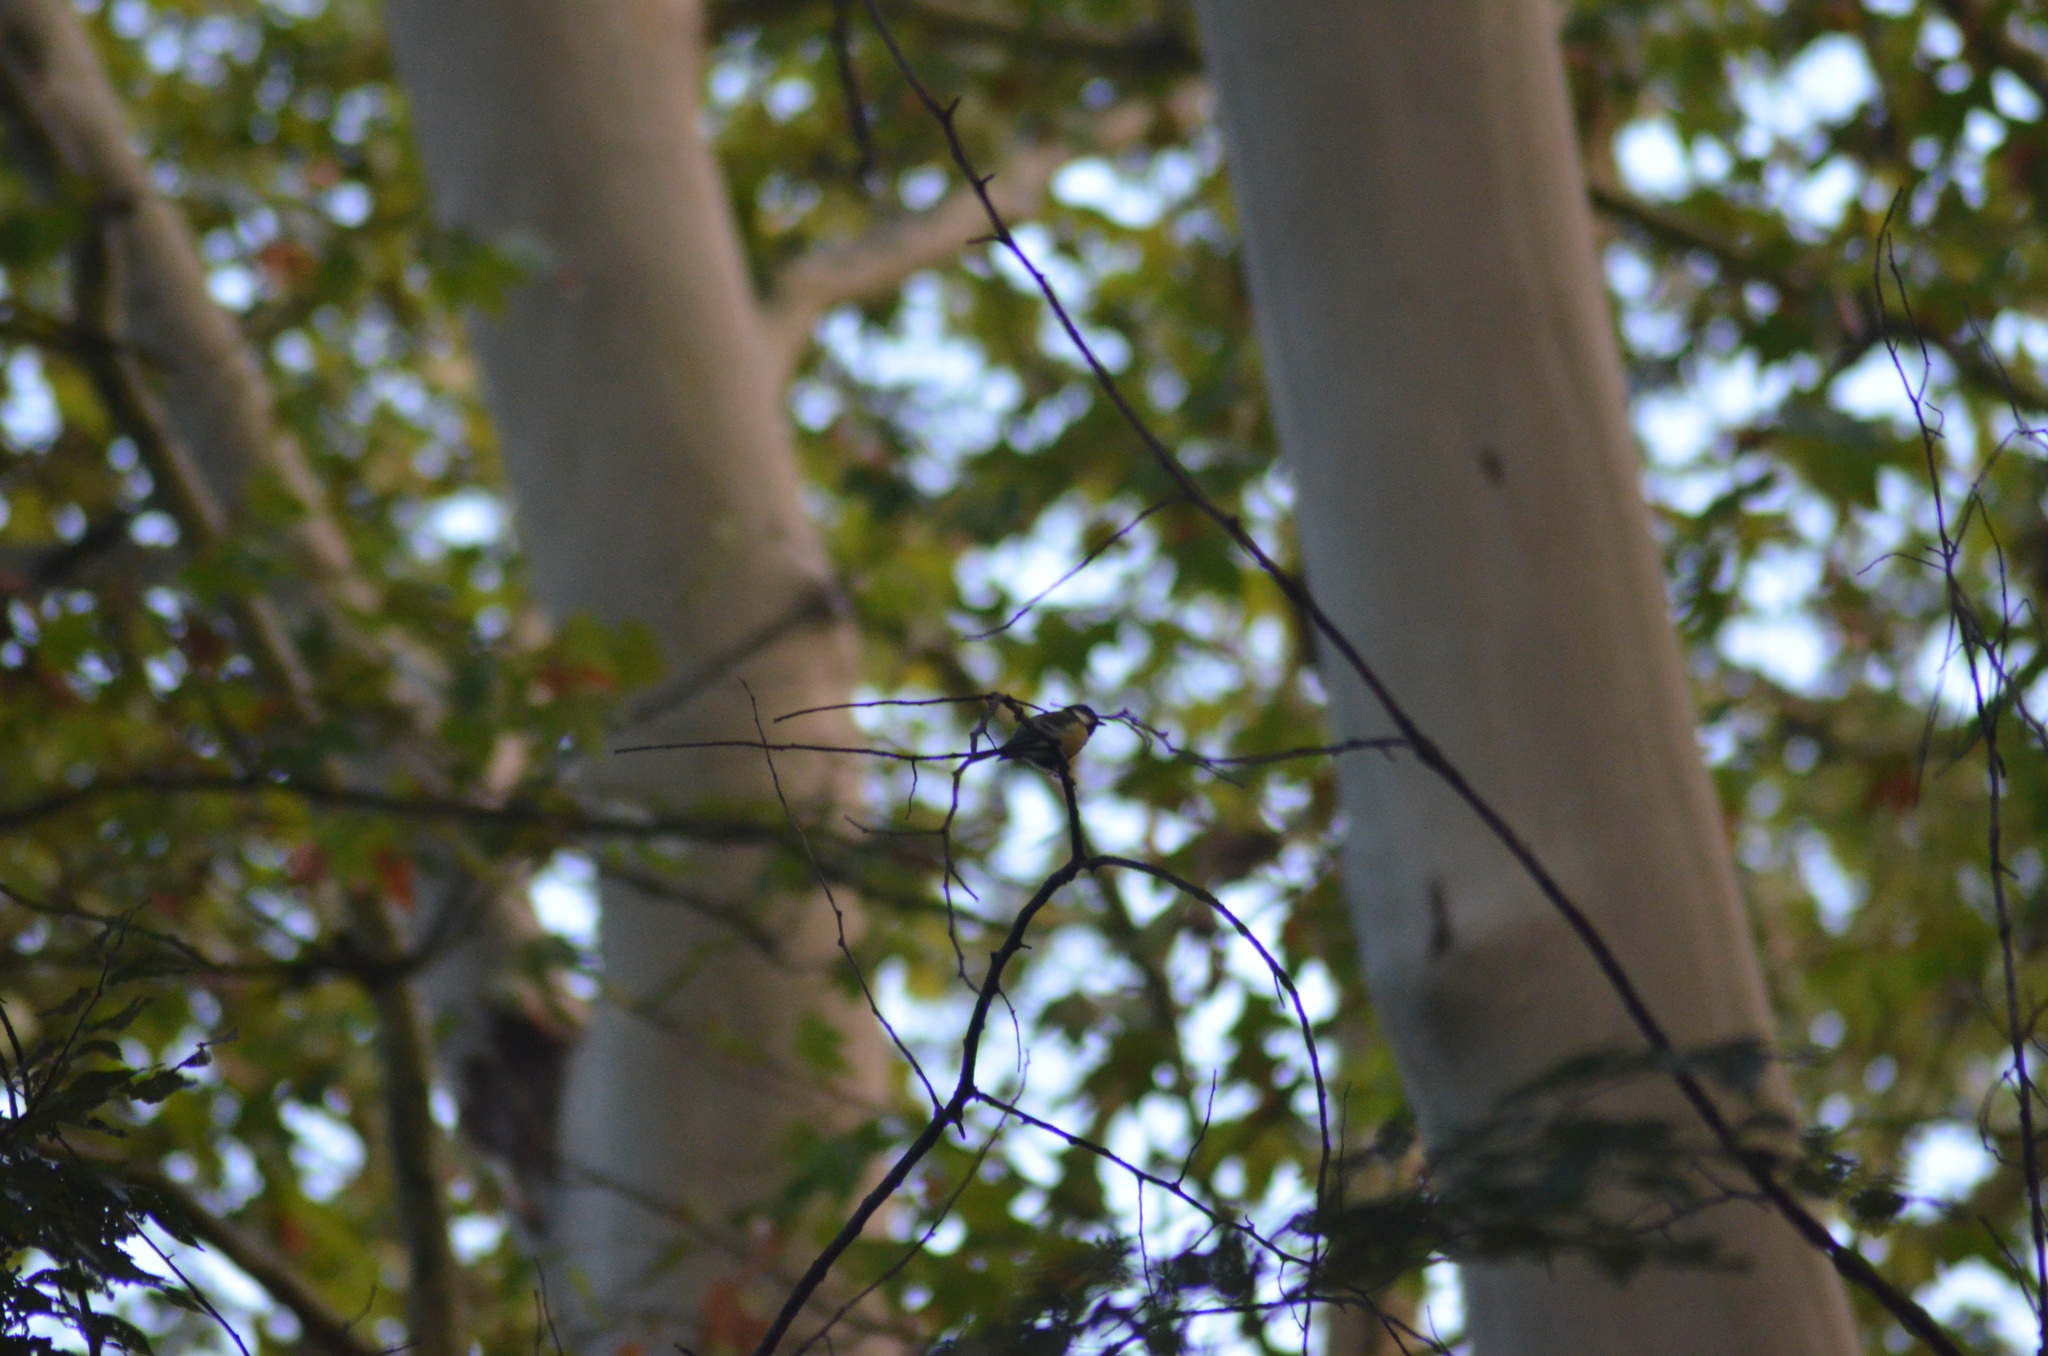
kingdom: Animalia
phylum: Chordata
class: Aves
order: Passeriformes
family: Paridae
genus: Parus
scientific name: Parus major
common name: Great tit
